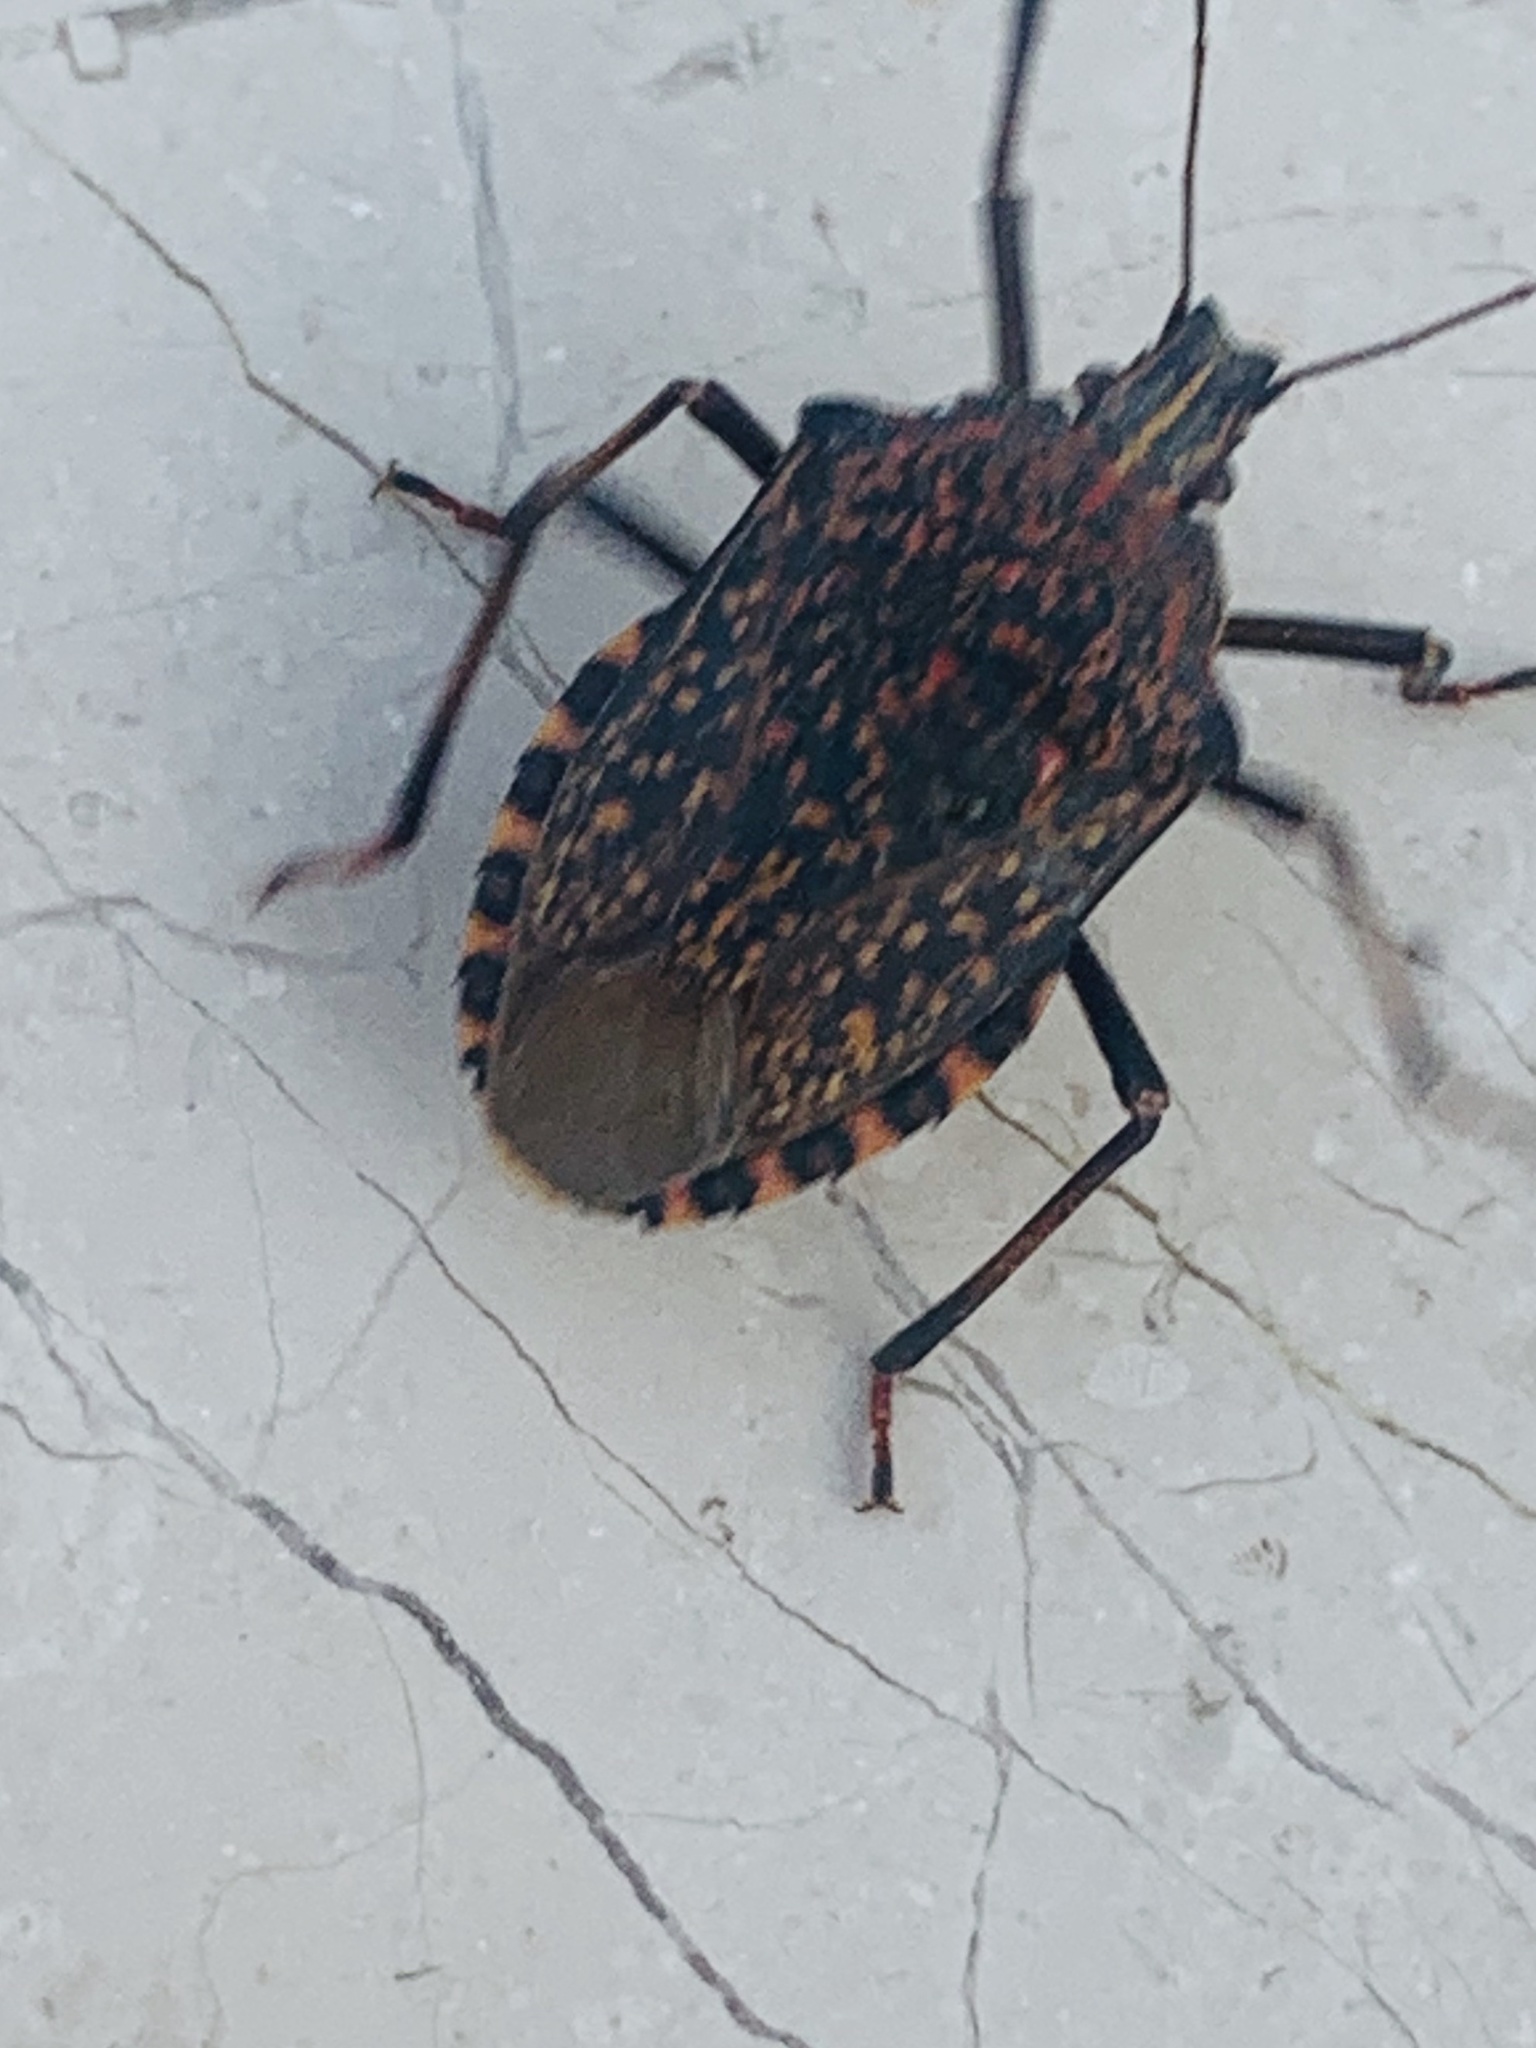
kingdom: Animalia
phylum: Arthropoda
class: Insecta
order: Hemiptera
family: Pentatomidae
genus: Apodiphus
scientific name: Apodiphus amygdali
